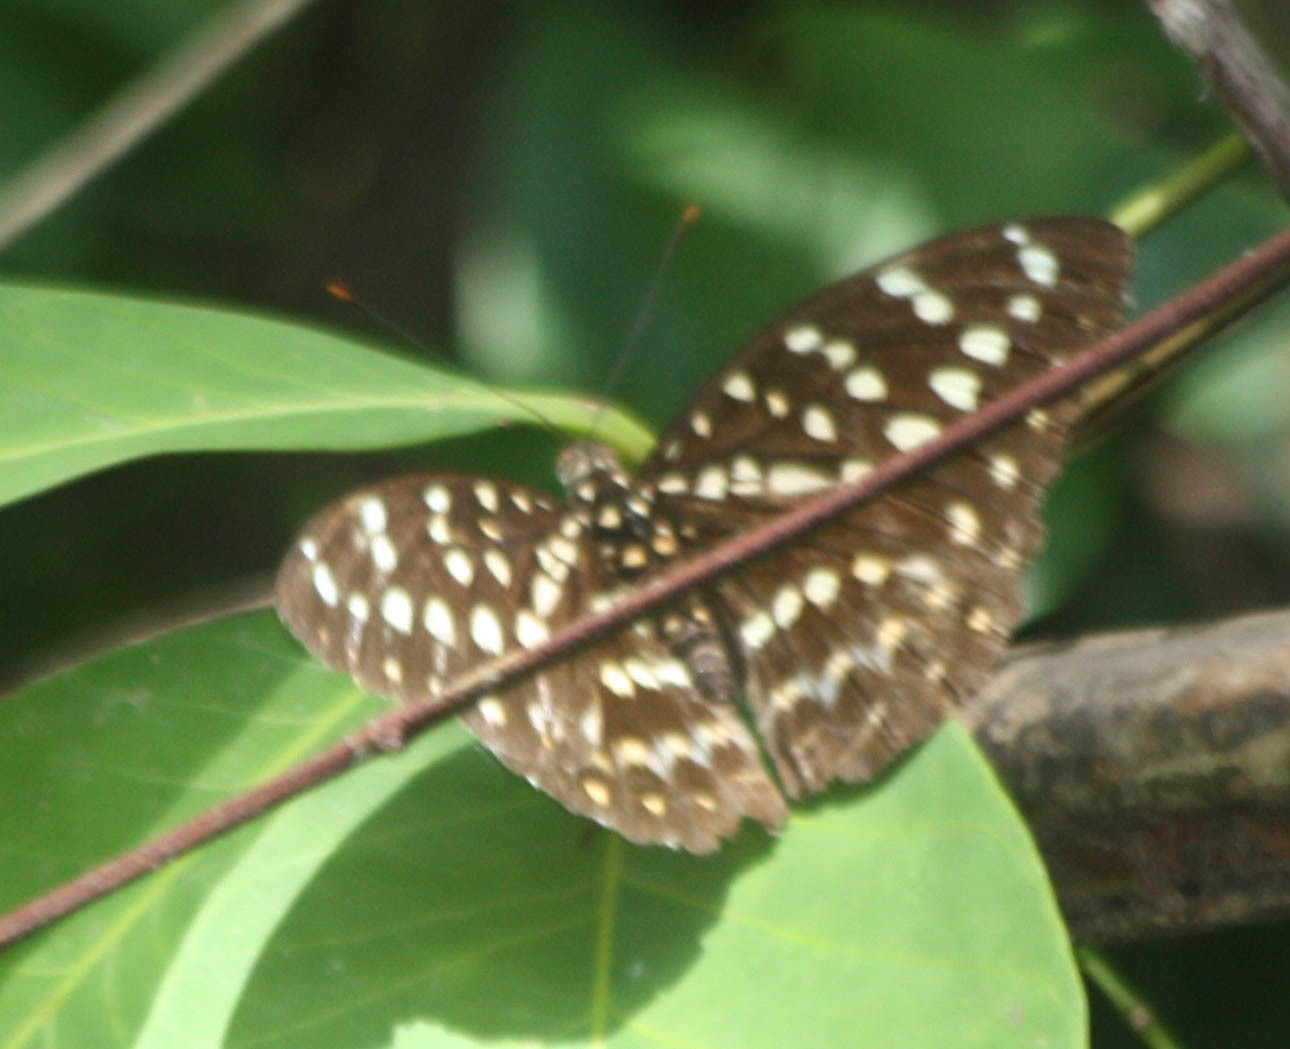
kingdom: Animalia
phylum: Arthropoda
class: Insecta
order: Lepidoptera
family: Nymphalidae
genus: Lexias
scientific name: Lexias pardalis
